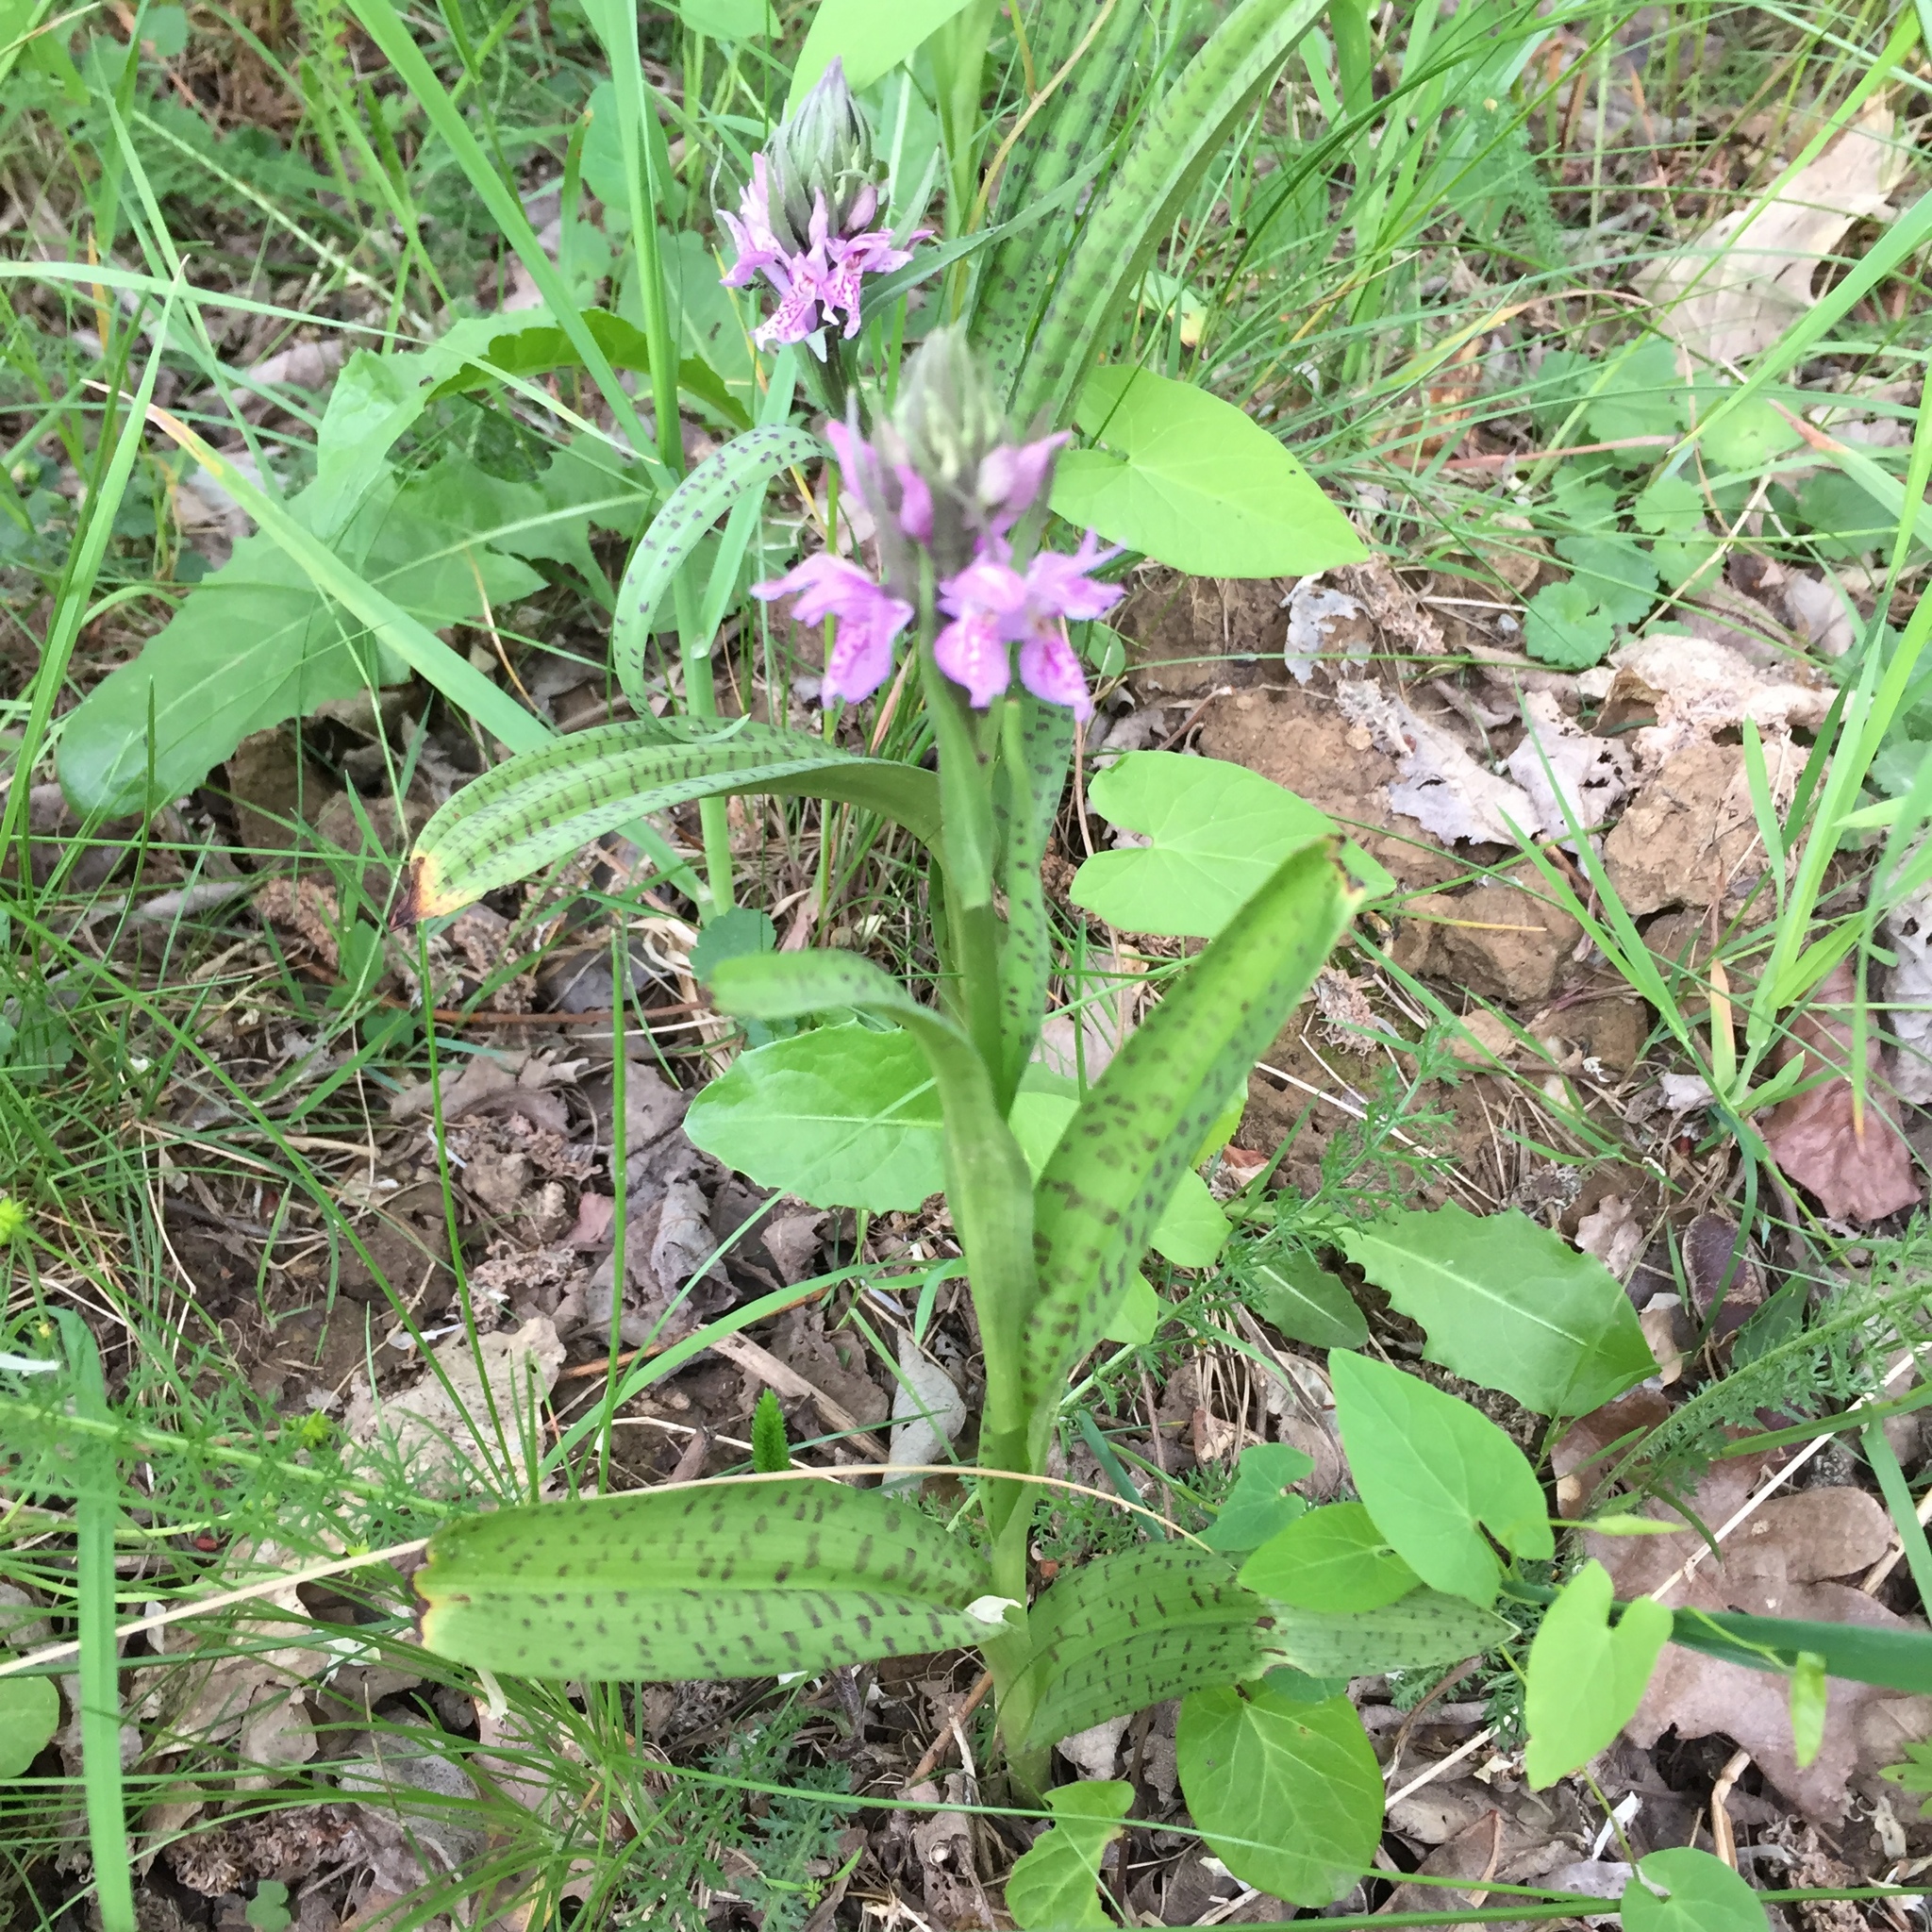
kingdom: Plantae
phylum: Tracheophyta
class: Liliopsida
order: Asparagales
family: Orchidaceae
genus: Dactylorhiza
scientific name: Dactylorhiza majalis
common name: Marsh orchid
